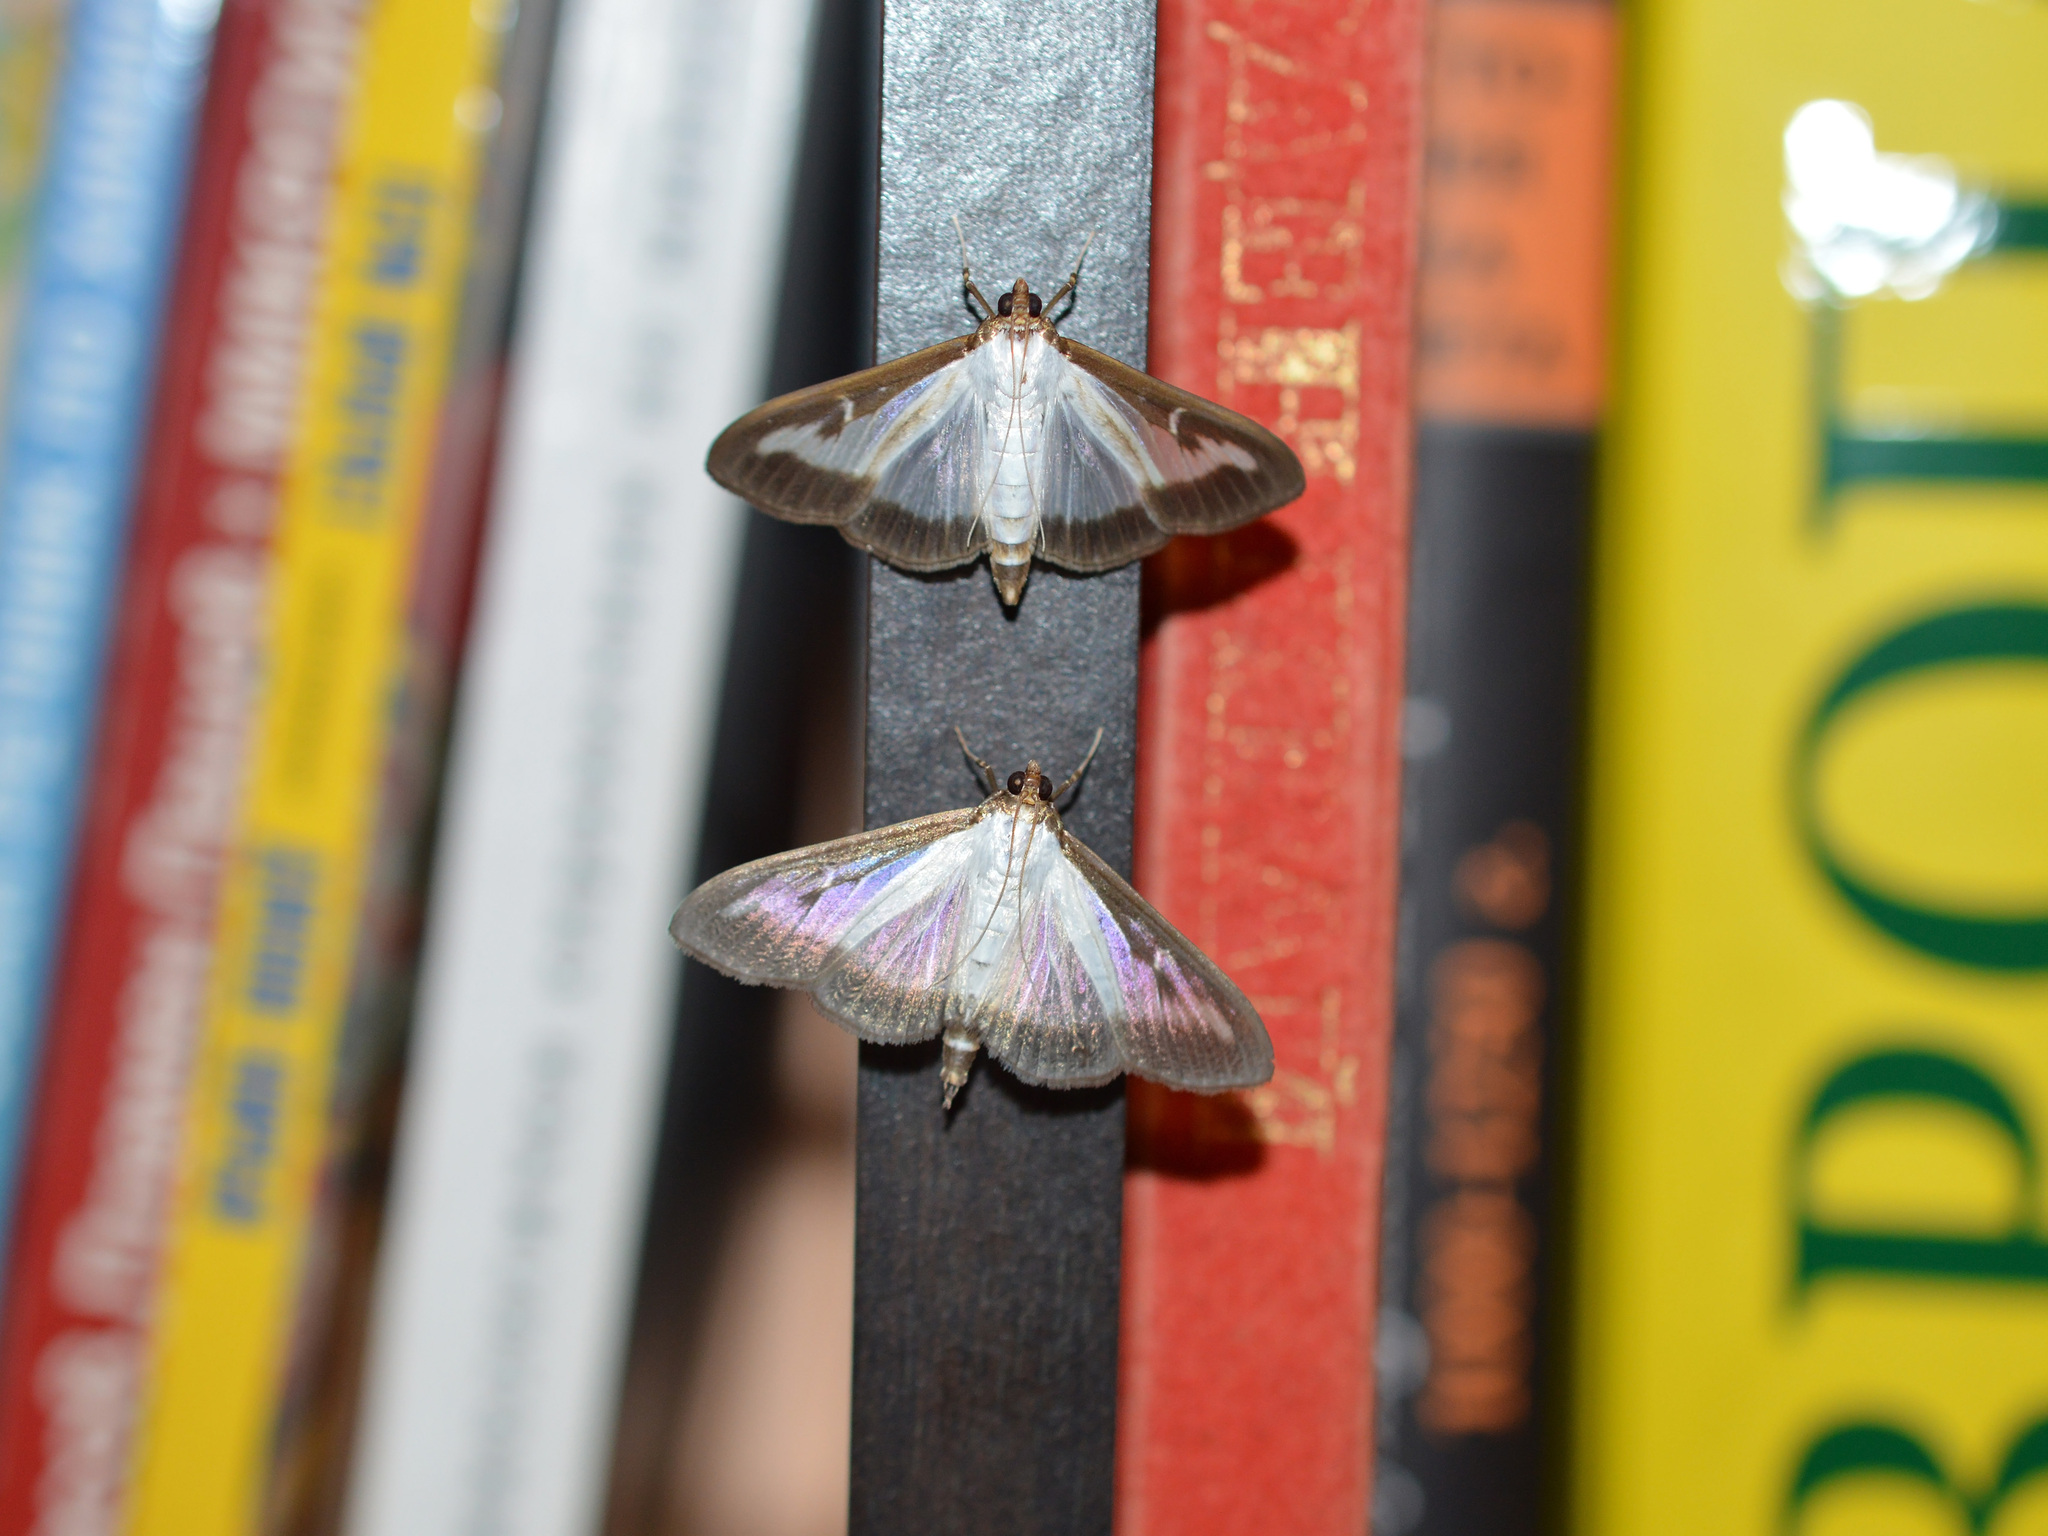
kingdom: Animalia
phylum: Arthropoda
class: Insecta
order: Lepidoptera
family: Crambidae
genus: Cydalima
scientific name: Cydalima perspectalis
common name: Box tree moth
